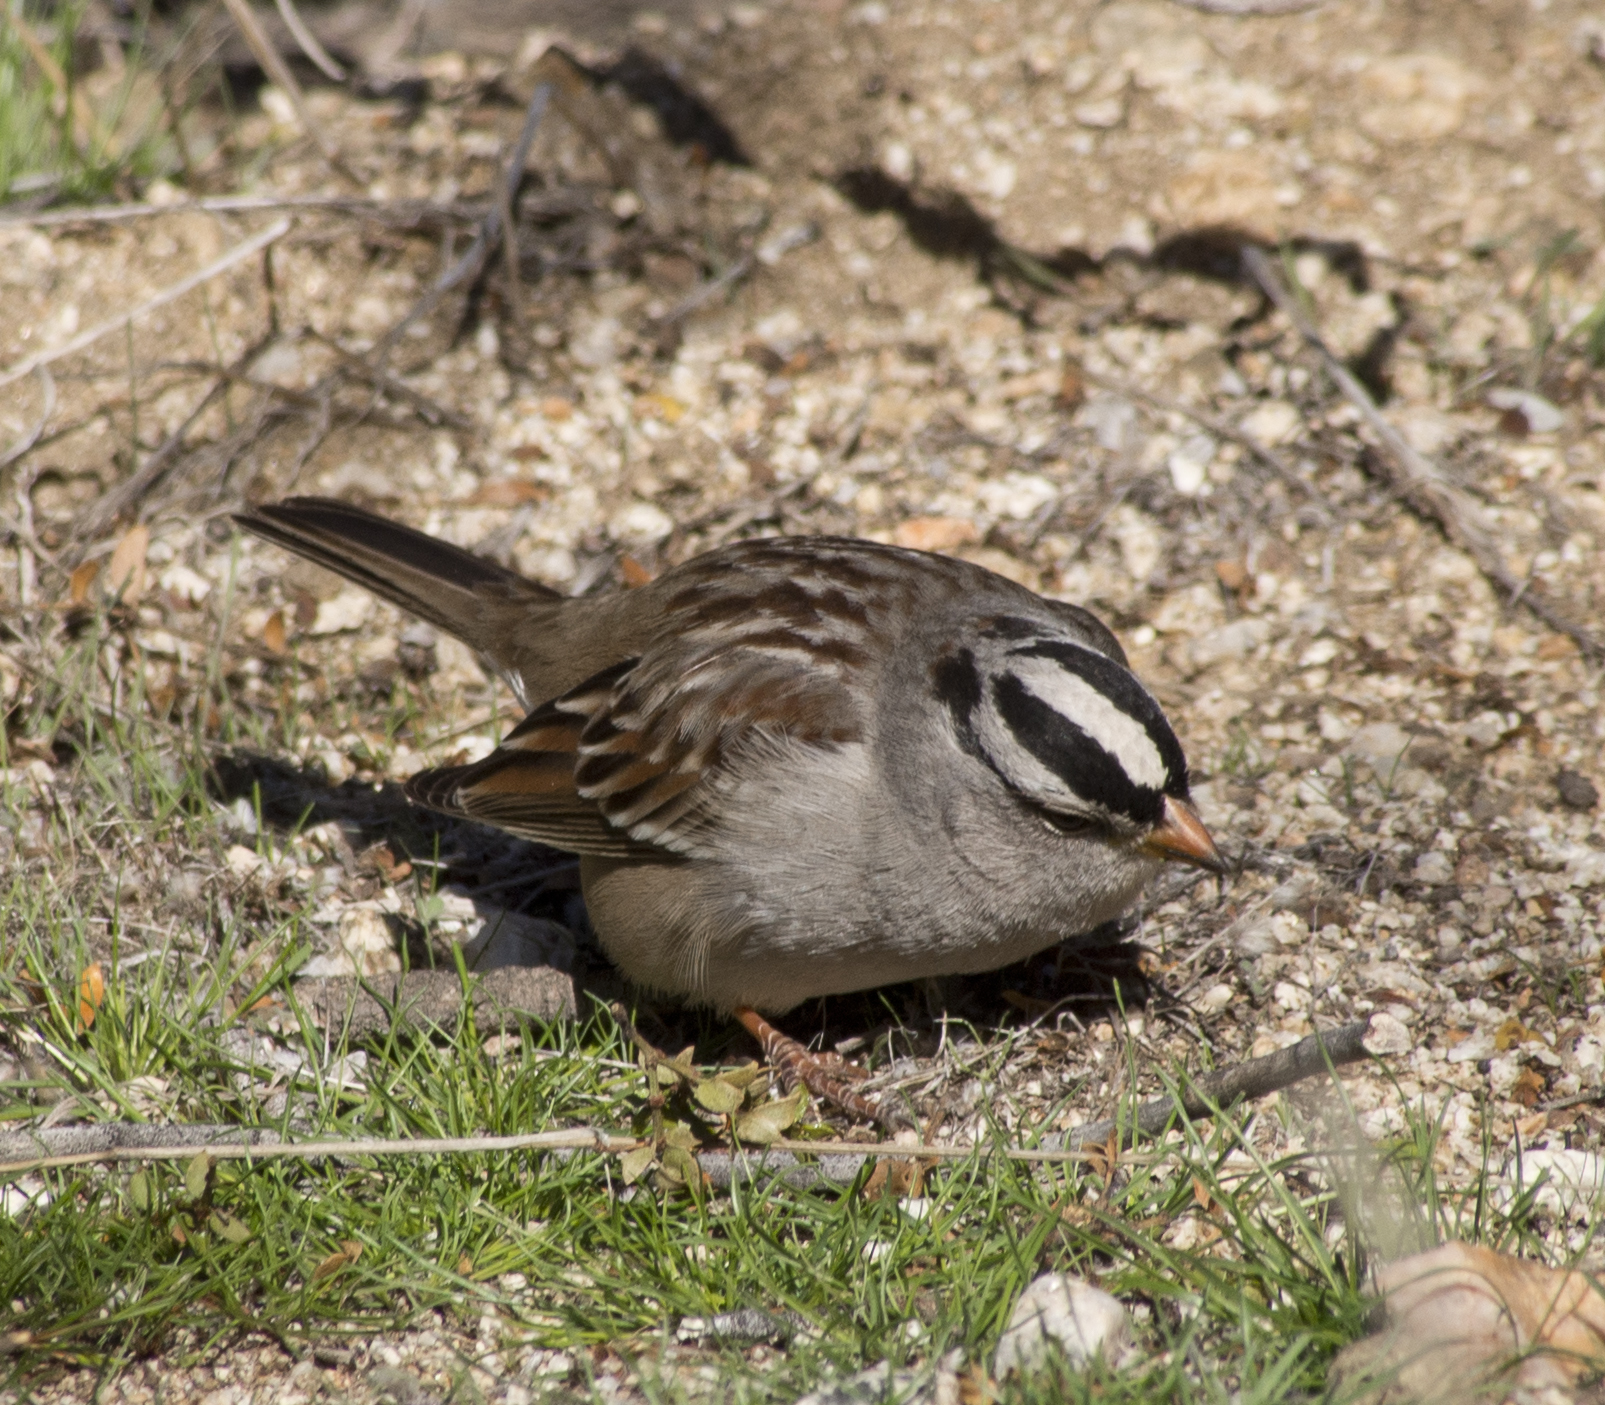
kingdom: Animalia
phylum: Chordata
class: Aves
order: Passeriformes
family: Passerellidae
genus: Zonotrichia
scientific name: Zonotrichia leucophrys
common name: White-crowned sparrow
